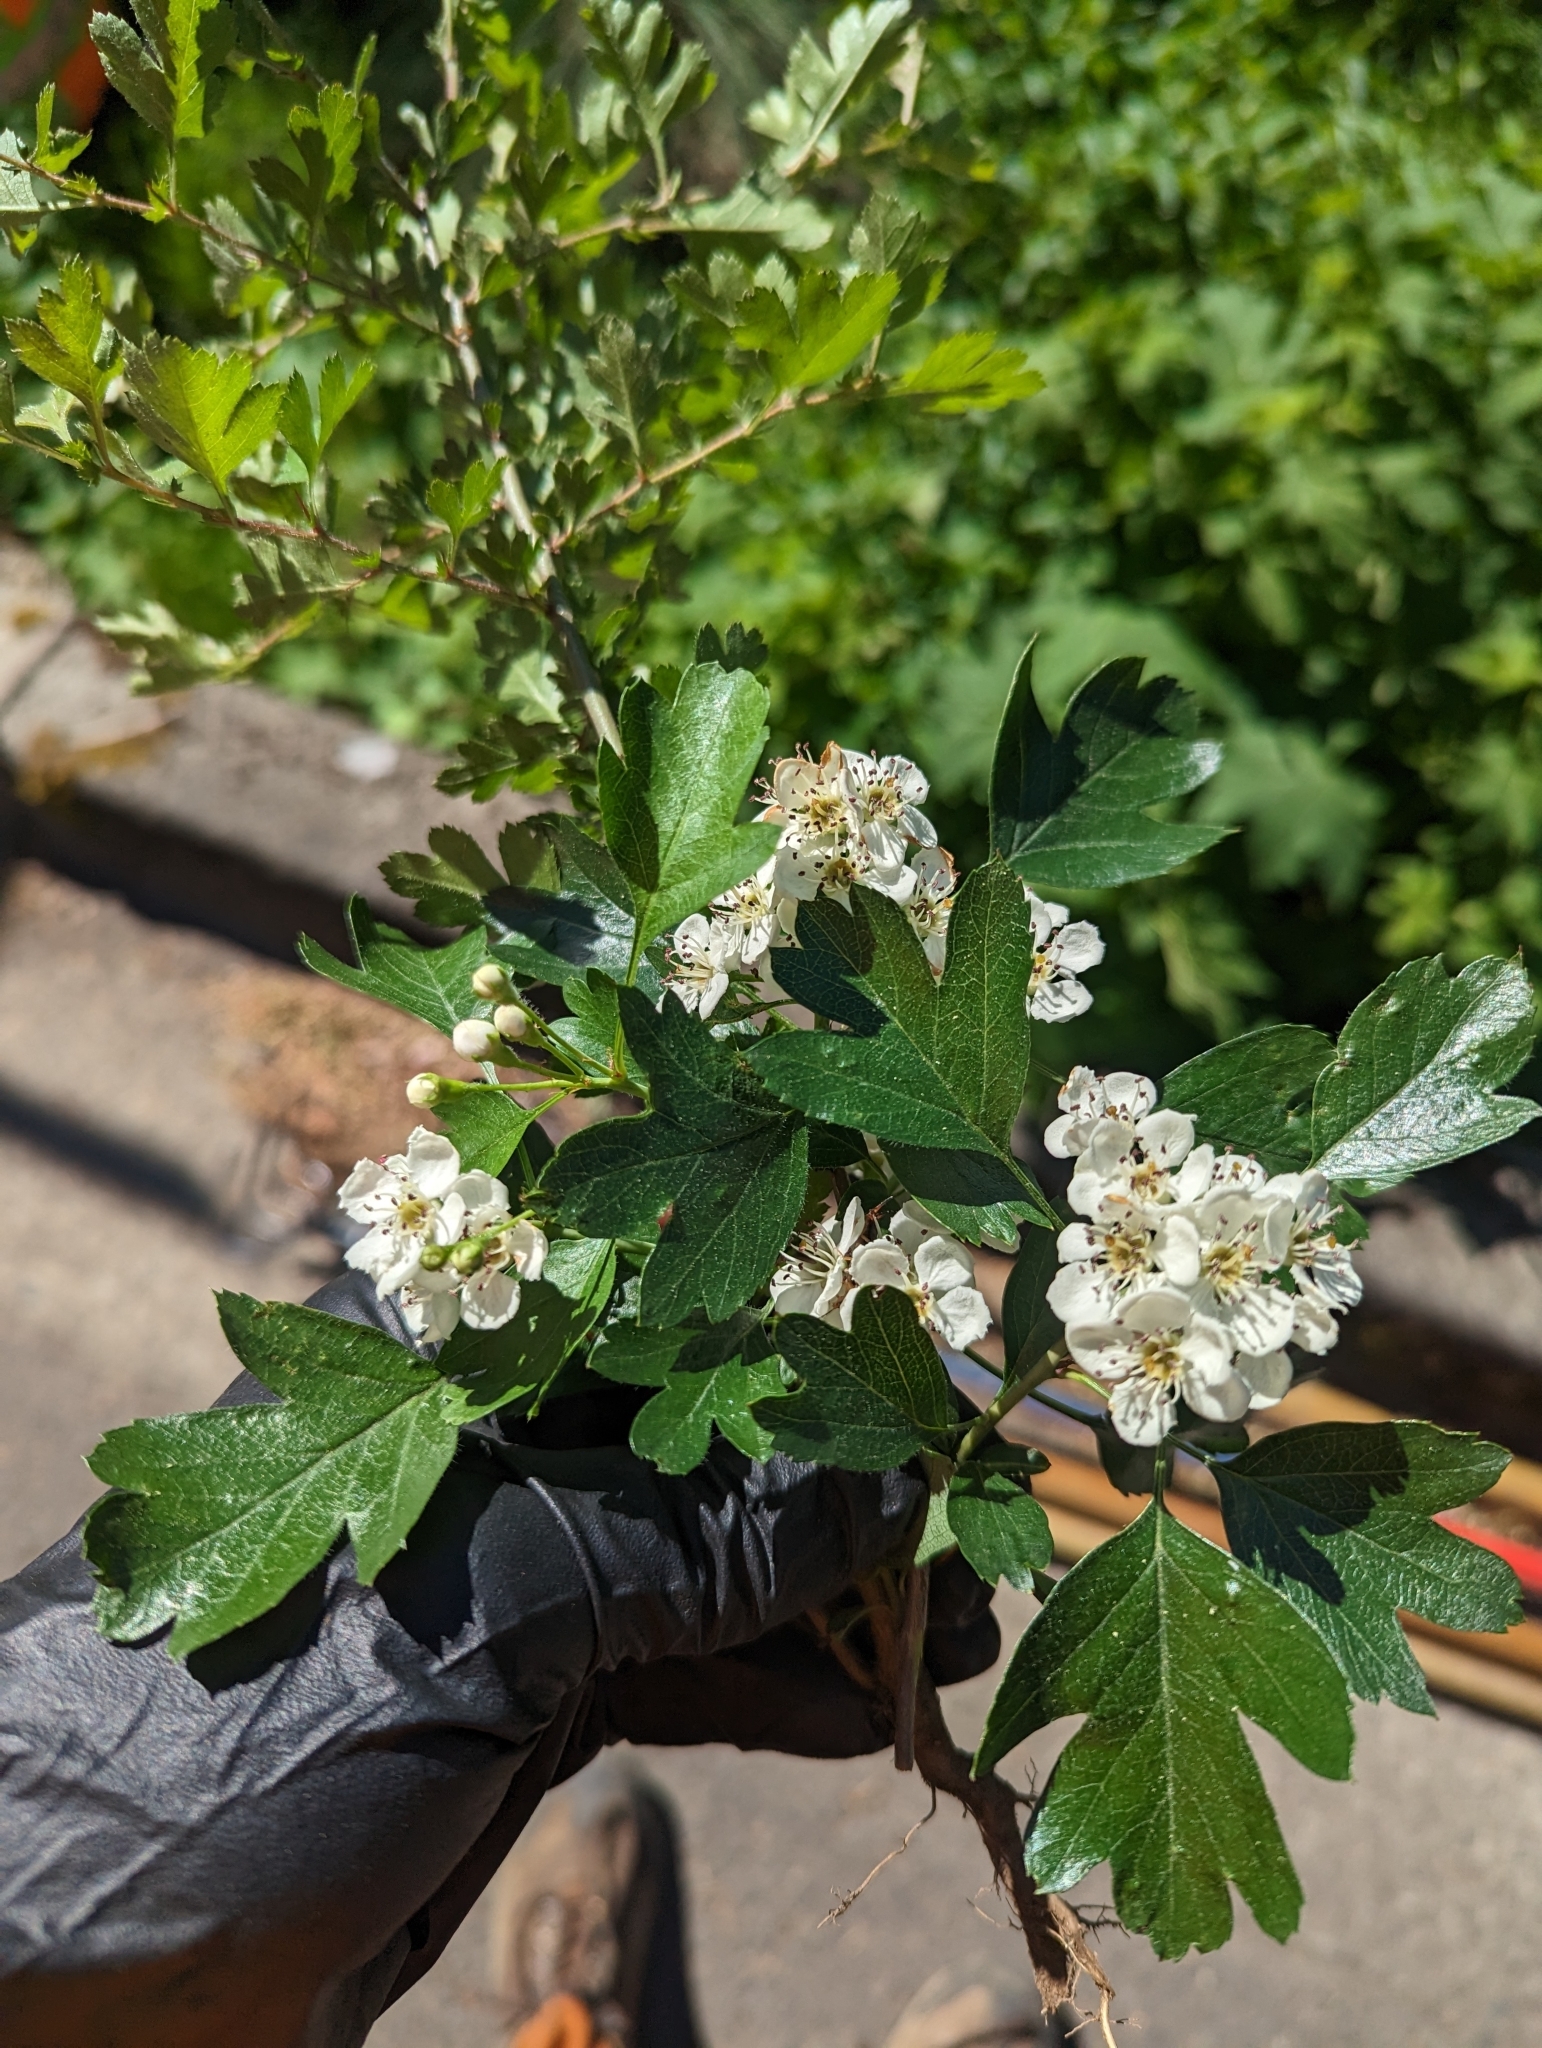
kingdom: Plantae
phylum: Tracheophyta
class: Magnoliopsida
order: Rosales
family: Rosaceae
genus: Crataegus
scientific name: Crataegus monogyna
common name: Hawthorn
